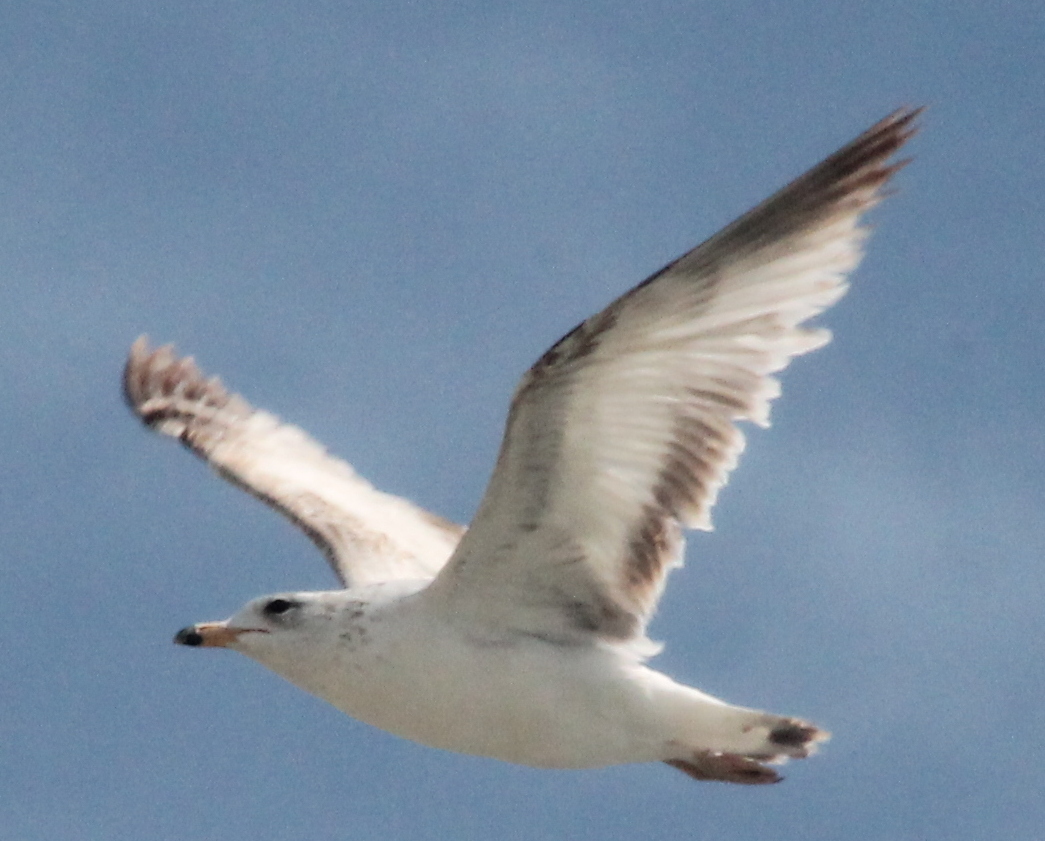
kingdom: Animalia
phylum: Chordata
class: Aves
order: Charadriiformes
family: Laridae
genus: Larus
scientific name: Larus delawarensis
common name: Ring-billed gull
